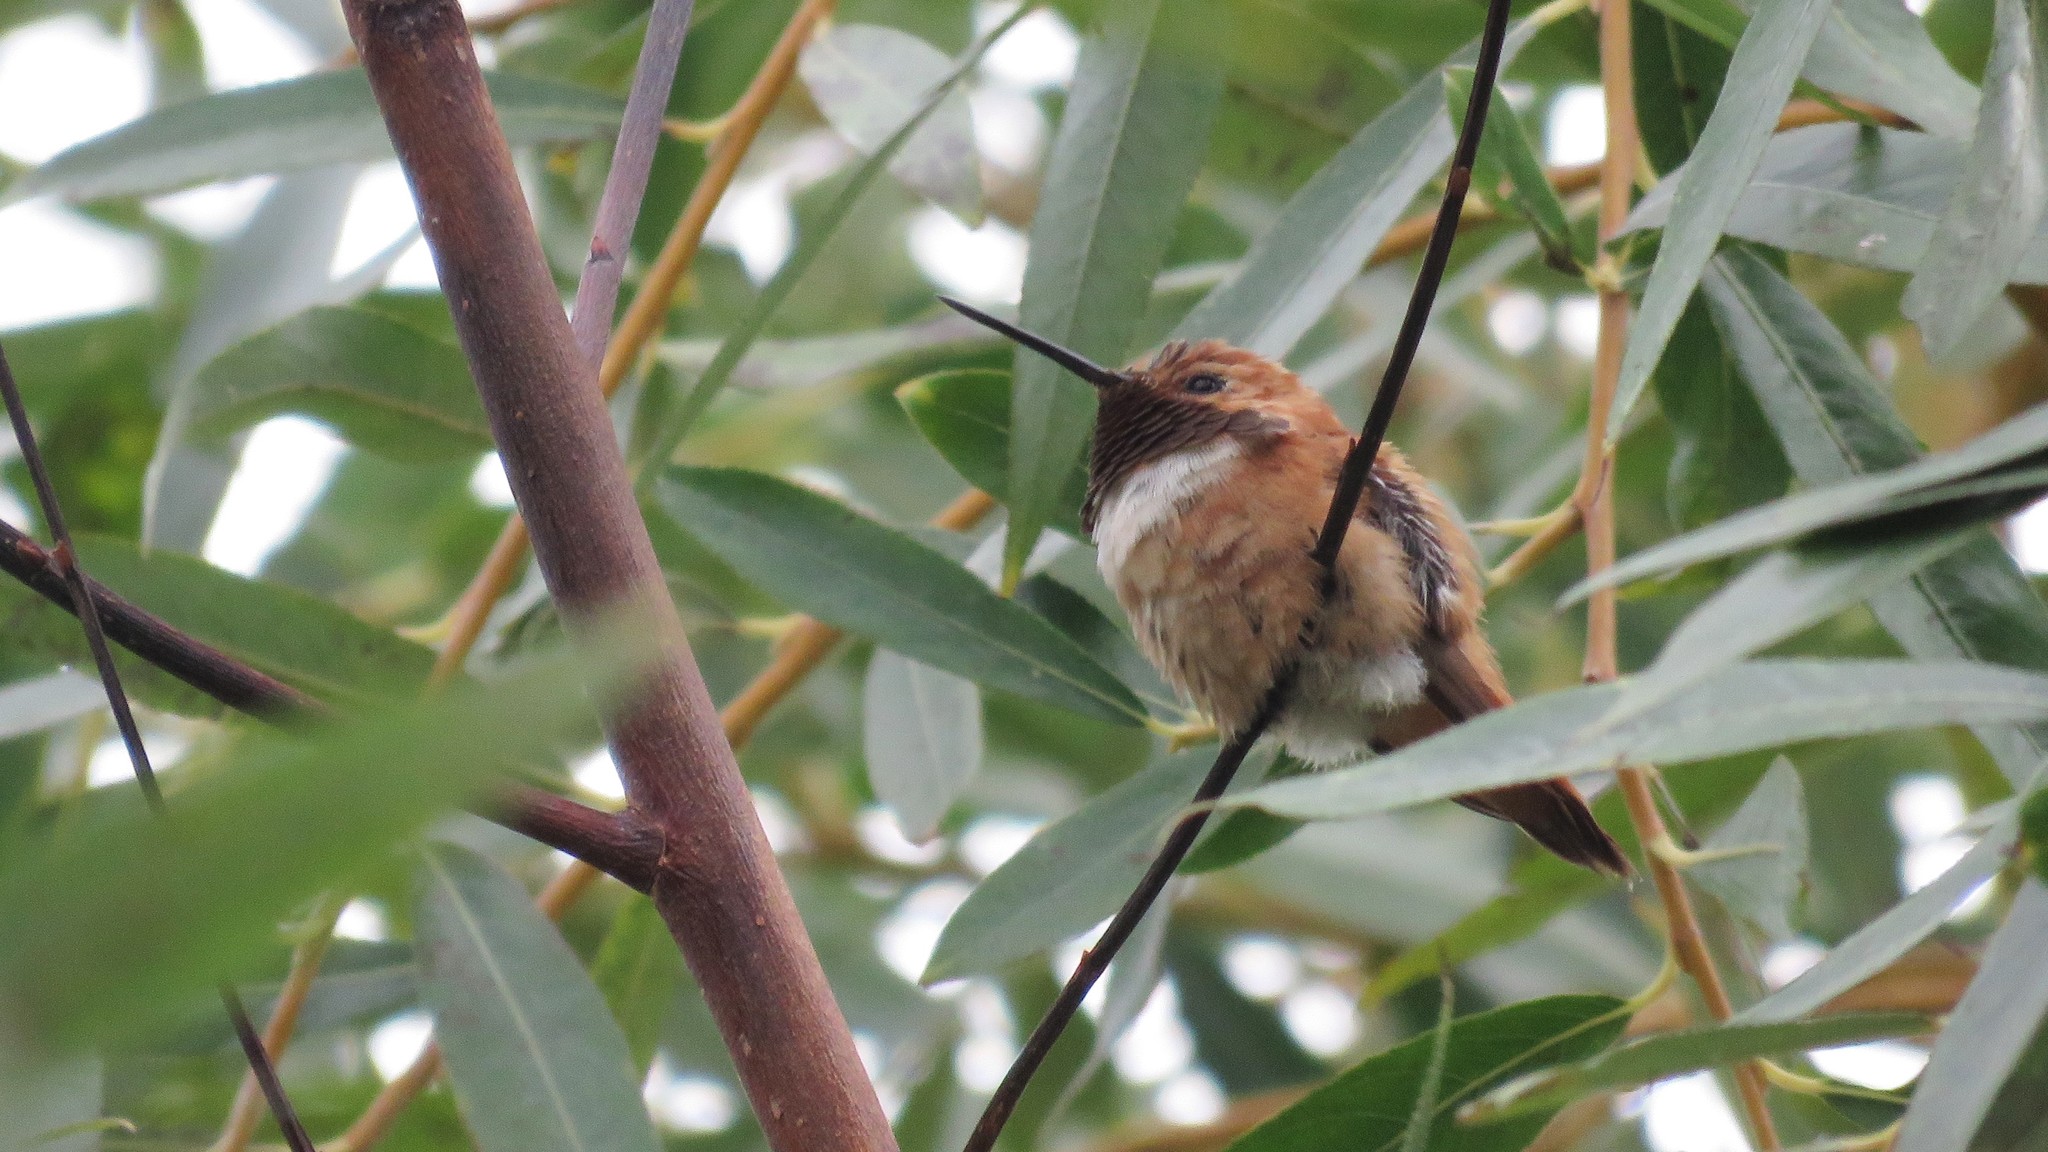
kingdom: Animalia
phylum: Chordata
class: Aves
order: Apodiformes
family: Trochilidae
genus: Selasphorus
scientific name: Selasphorus rufus
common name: Rufous hummingbird
